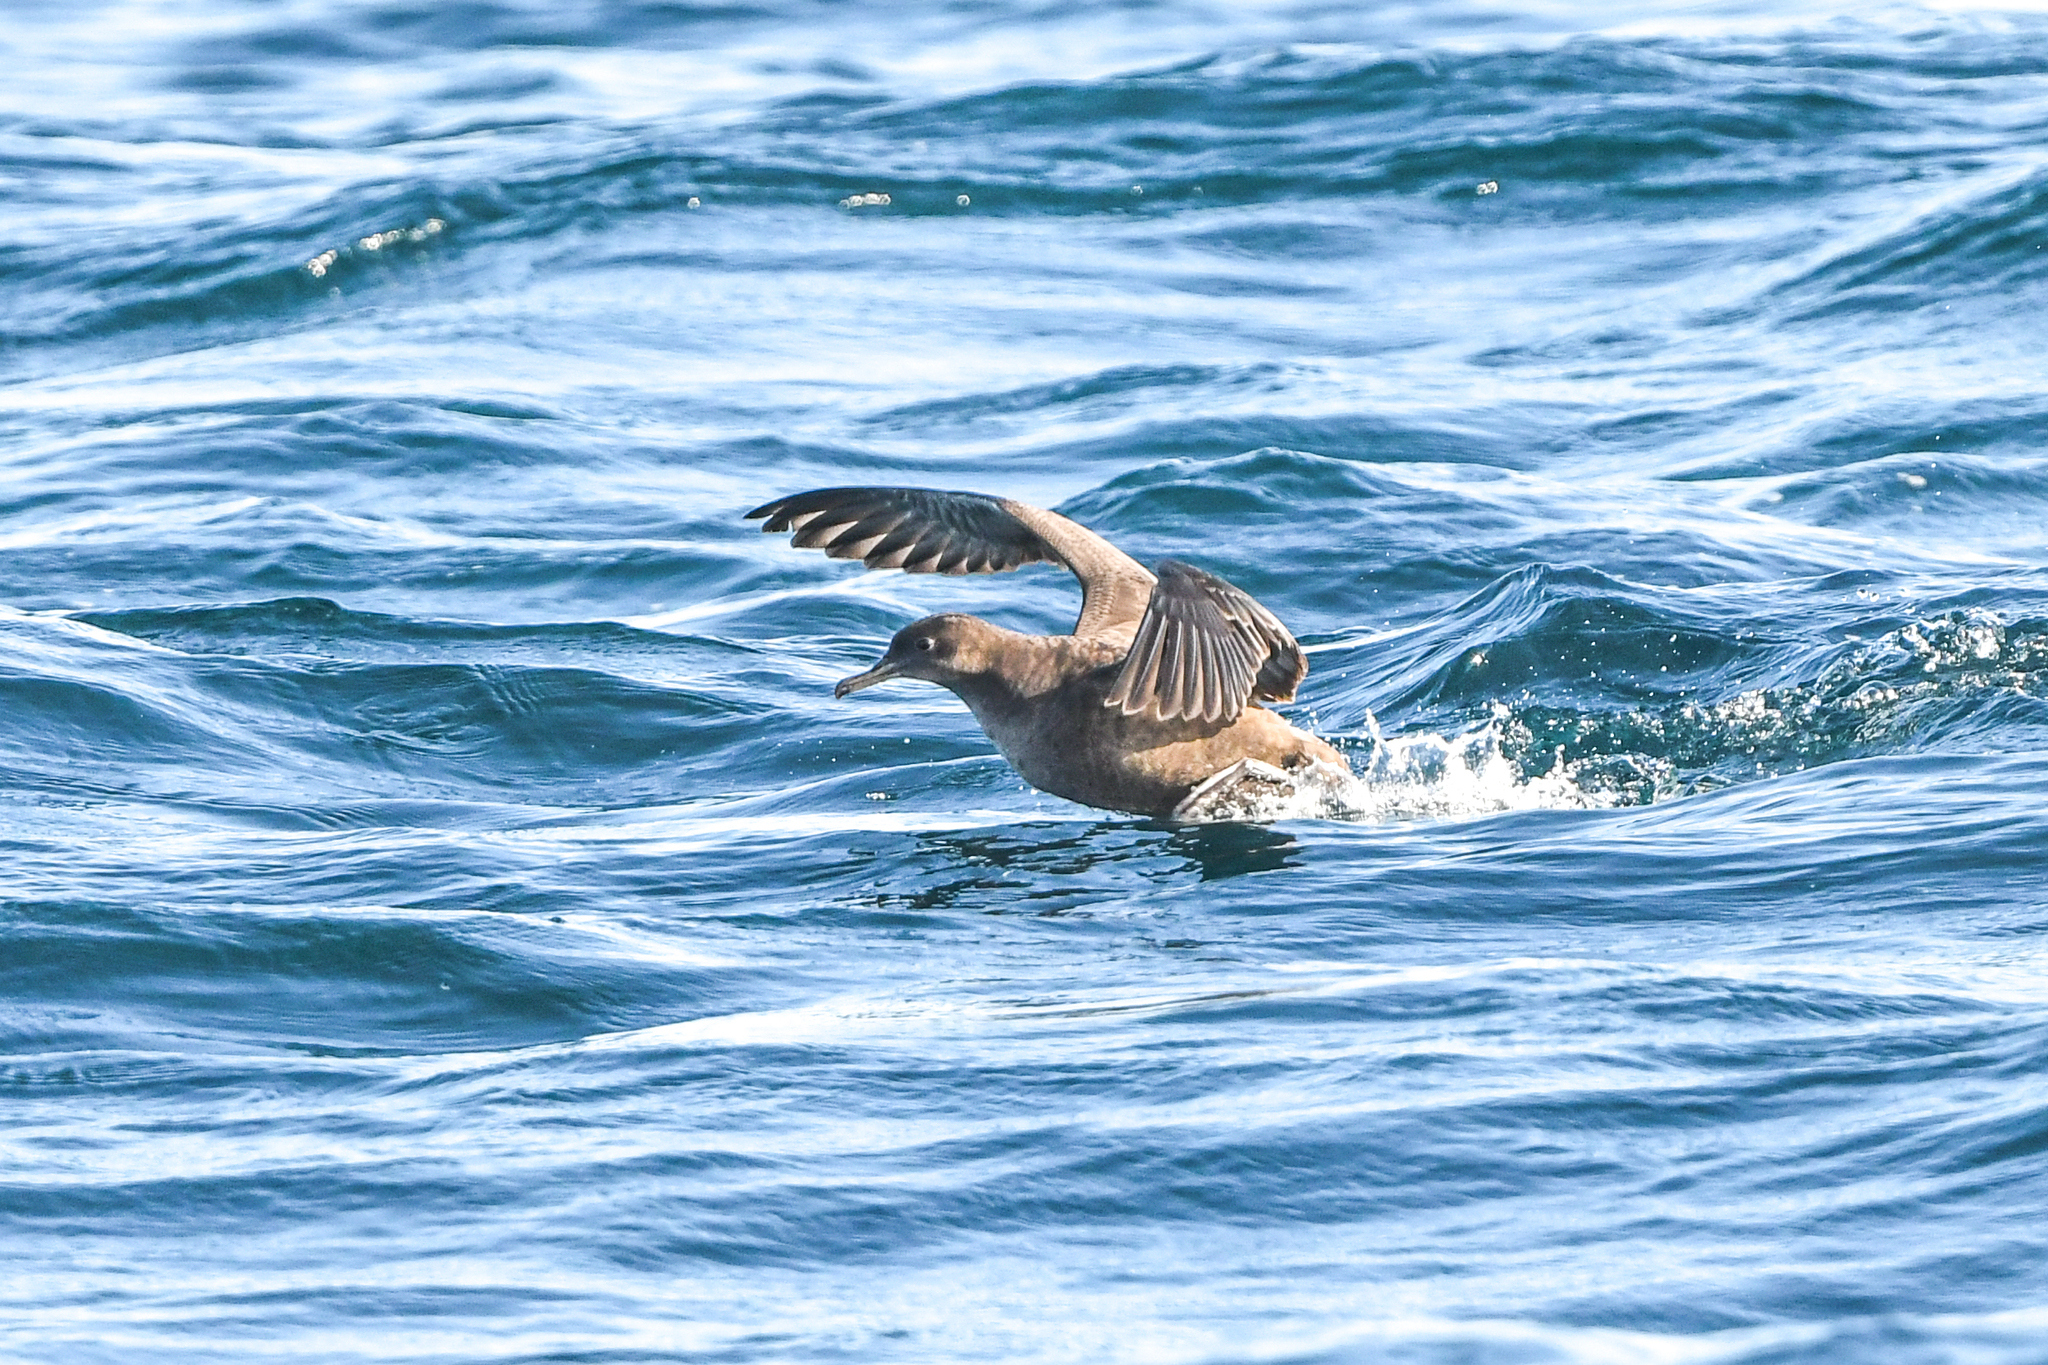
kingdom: Animalia
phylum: Chordata
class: Aves
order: Procellariiformes
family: Procellariidae
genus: Puffinus
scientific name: Puffinus griseus
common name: Sooty shearwater
